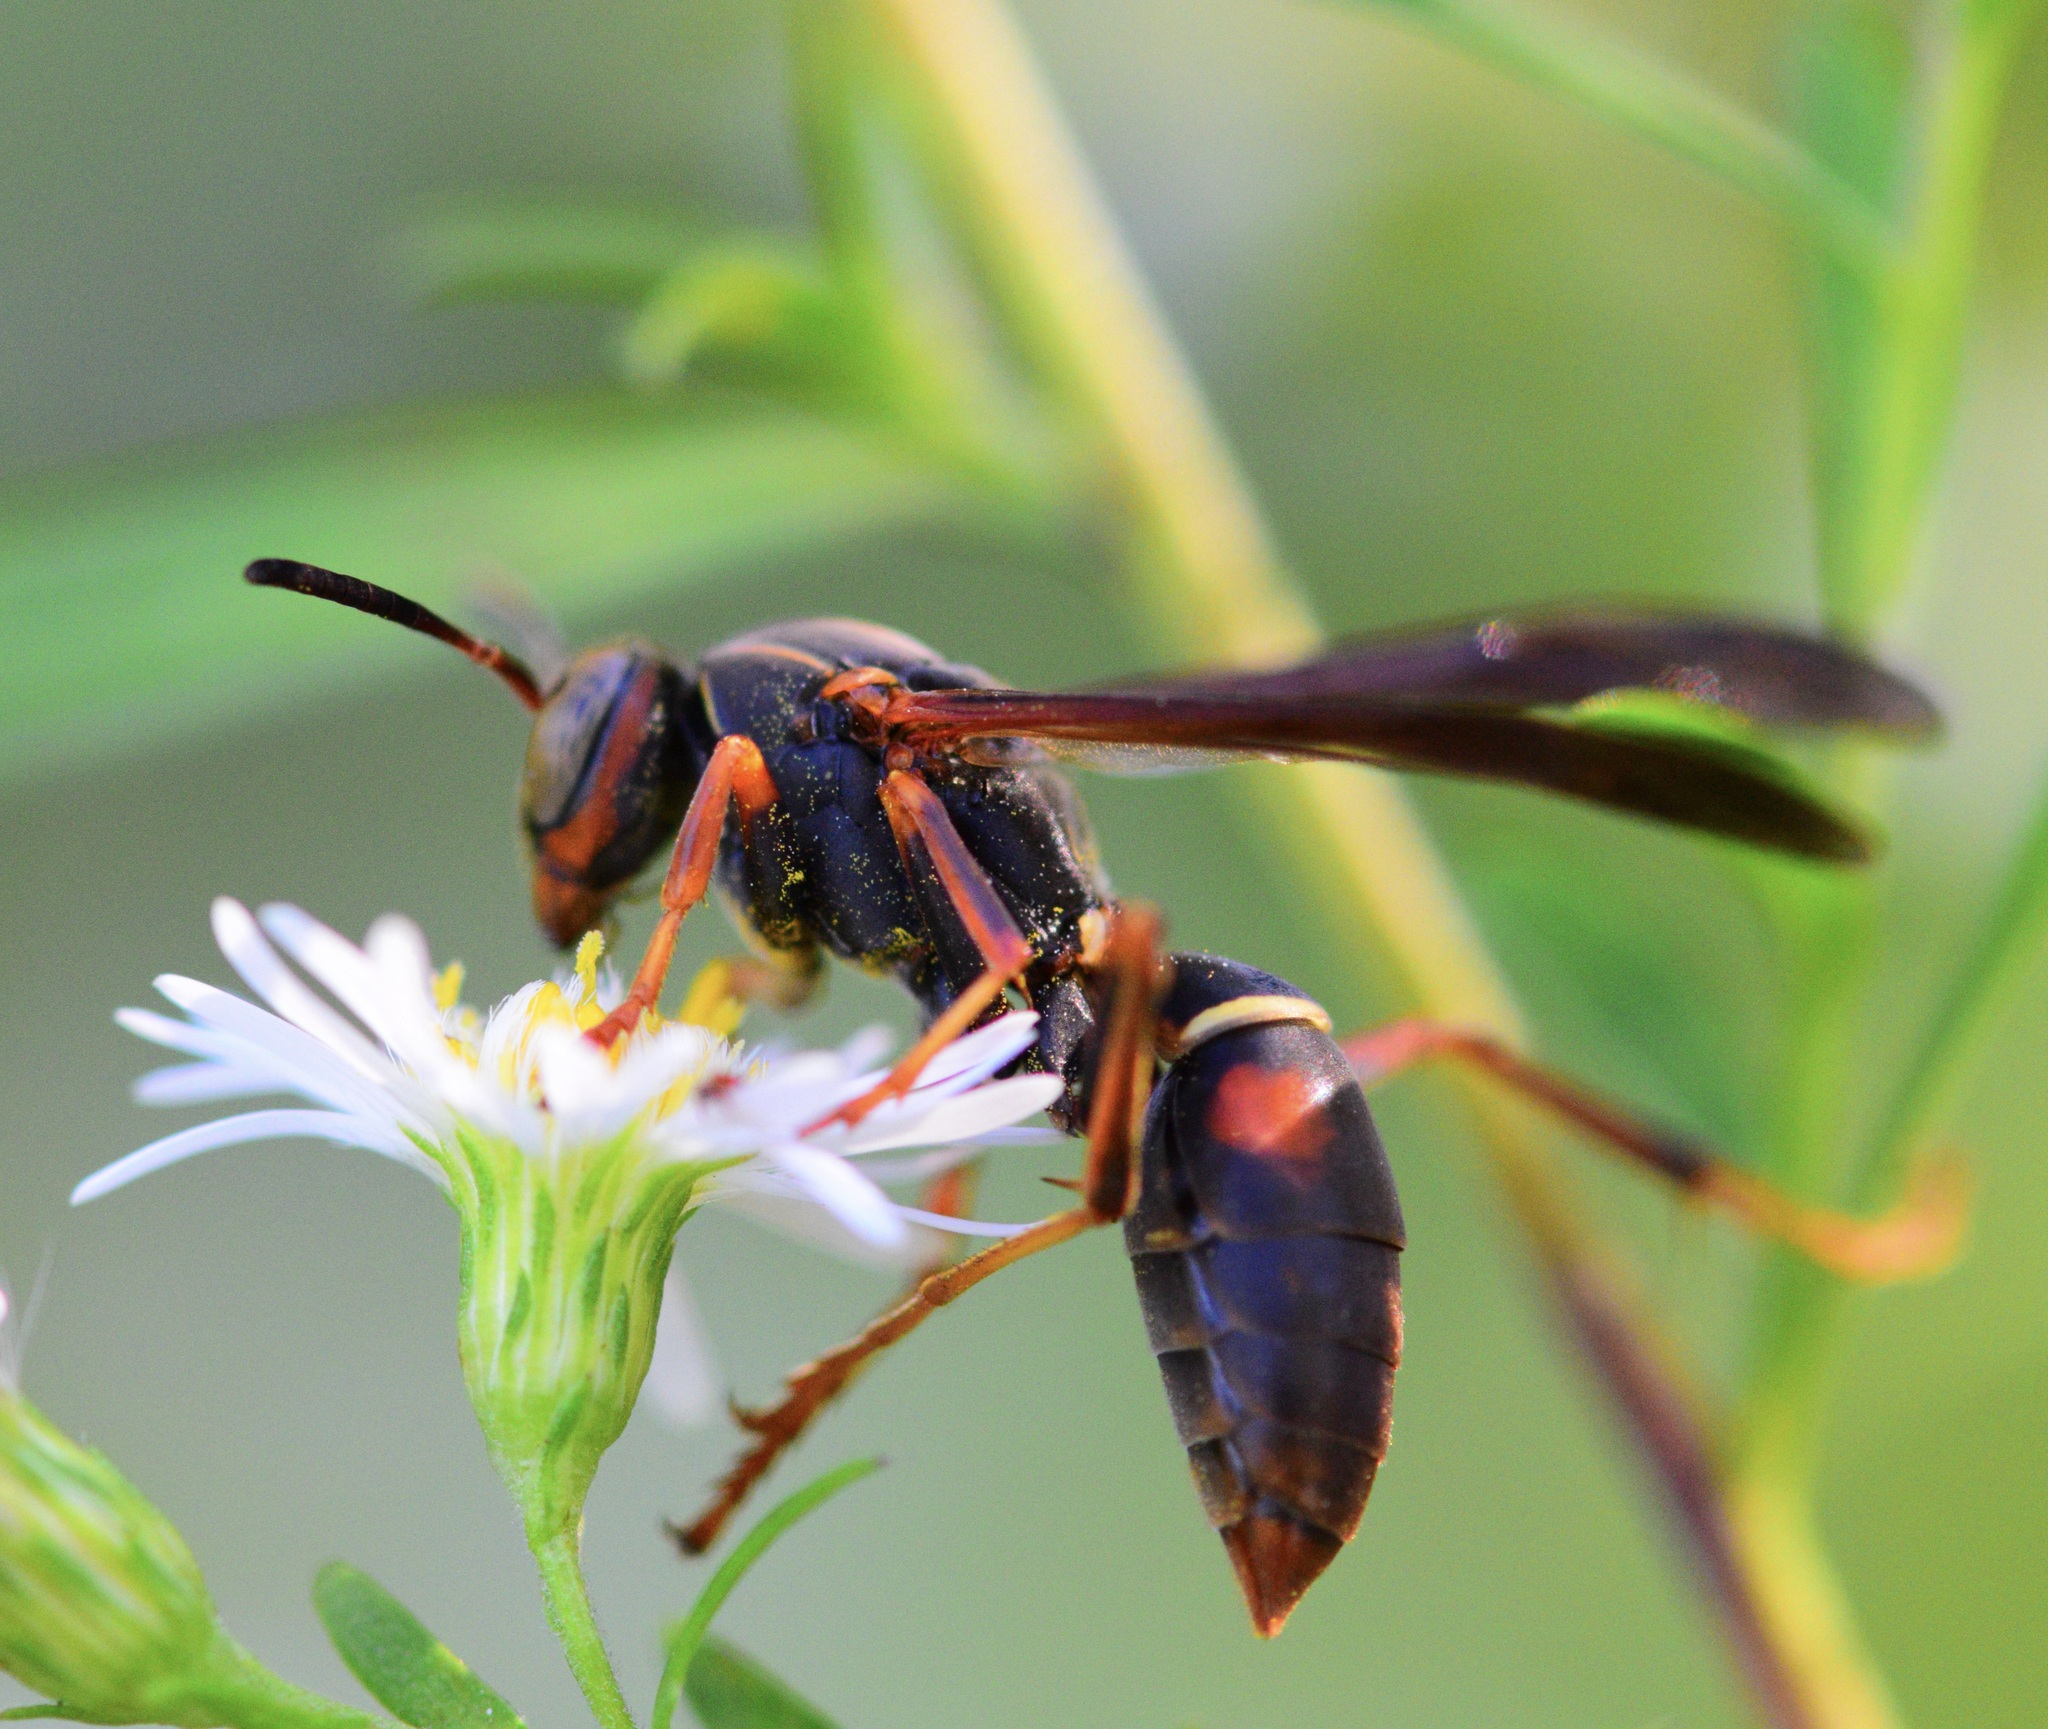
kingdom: Animalia
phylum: Arthropoda
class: Insecta
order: Hymenoptera
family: Eumenidae
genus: Polistes
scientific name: Polistes fuscatus
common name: Dark paper wasp
